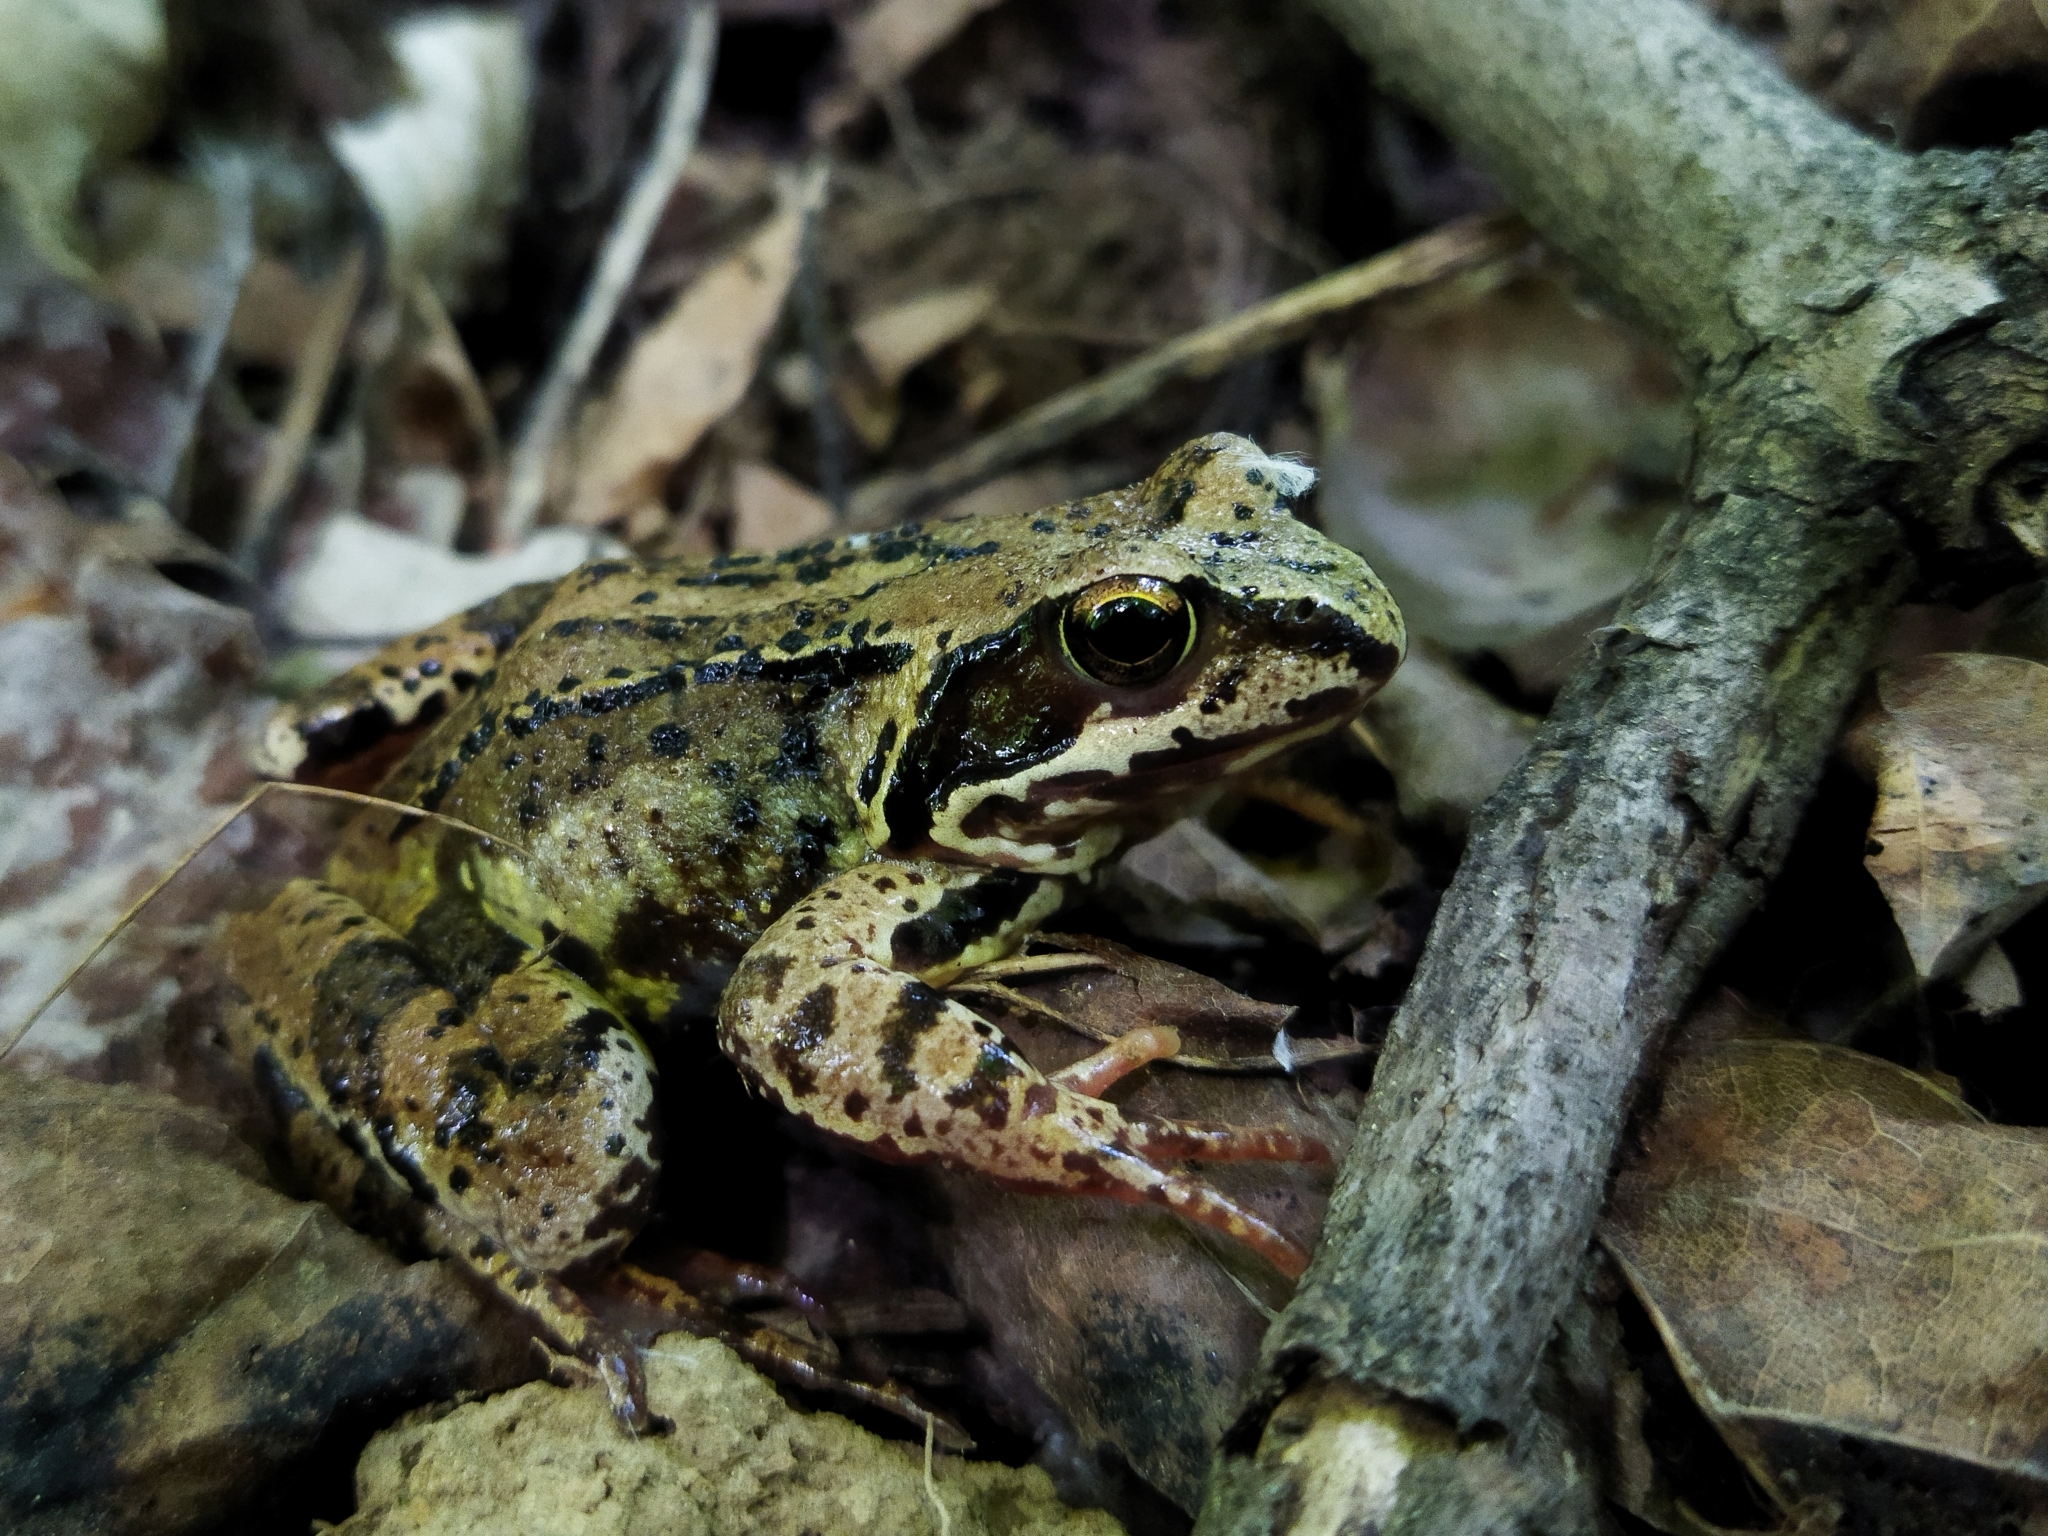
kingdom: Animalia
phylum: Chordata
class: Amphibia
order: Anura
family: Ranidae
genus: Rana
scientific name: Rana temporaria
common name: Common frog
